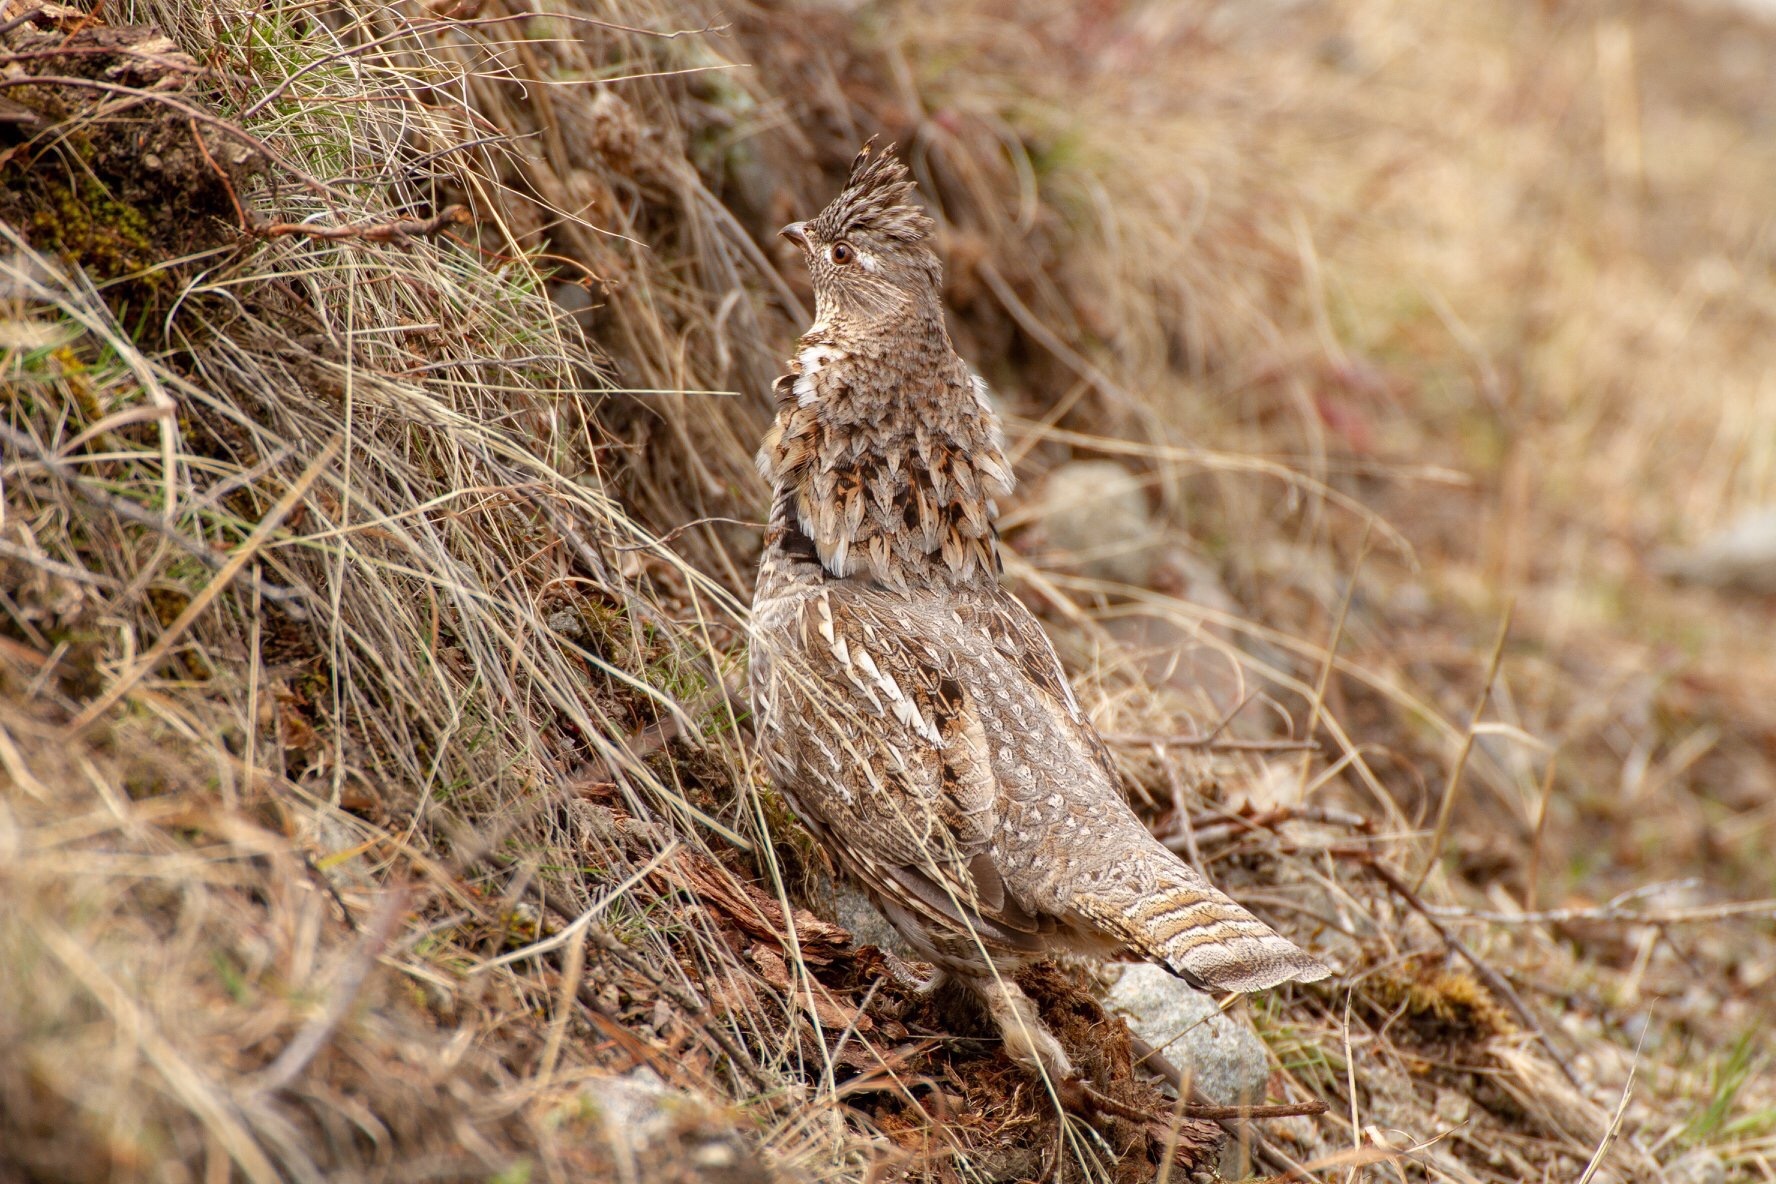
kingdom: Animalia
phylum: Chordata
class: Aves
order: Galliformes
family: Phasianidae
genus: Bonasa
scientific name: Bonasa umbellus
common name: Ruffed grouse
